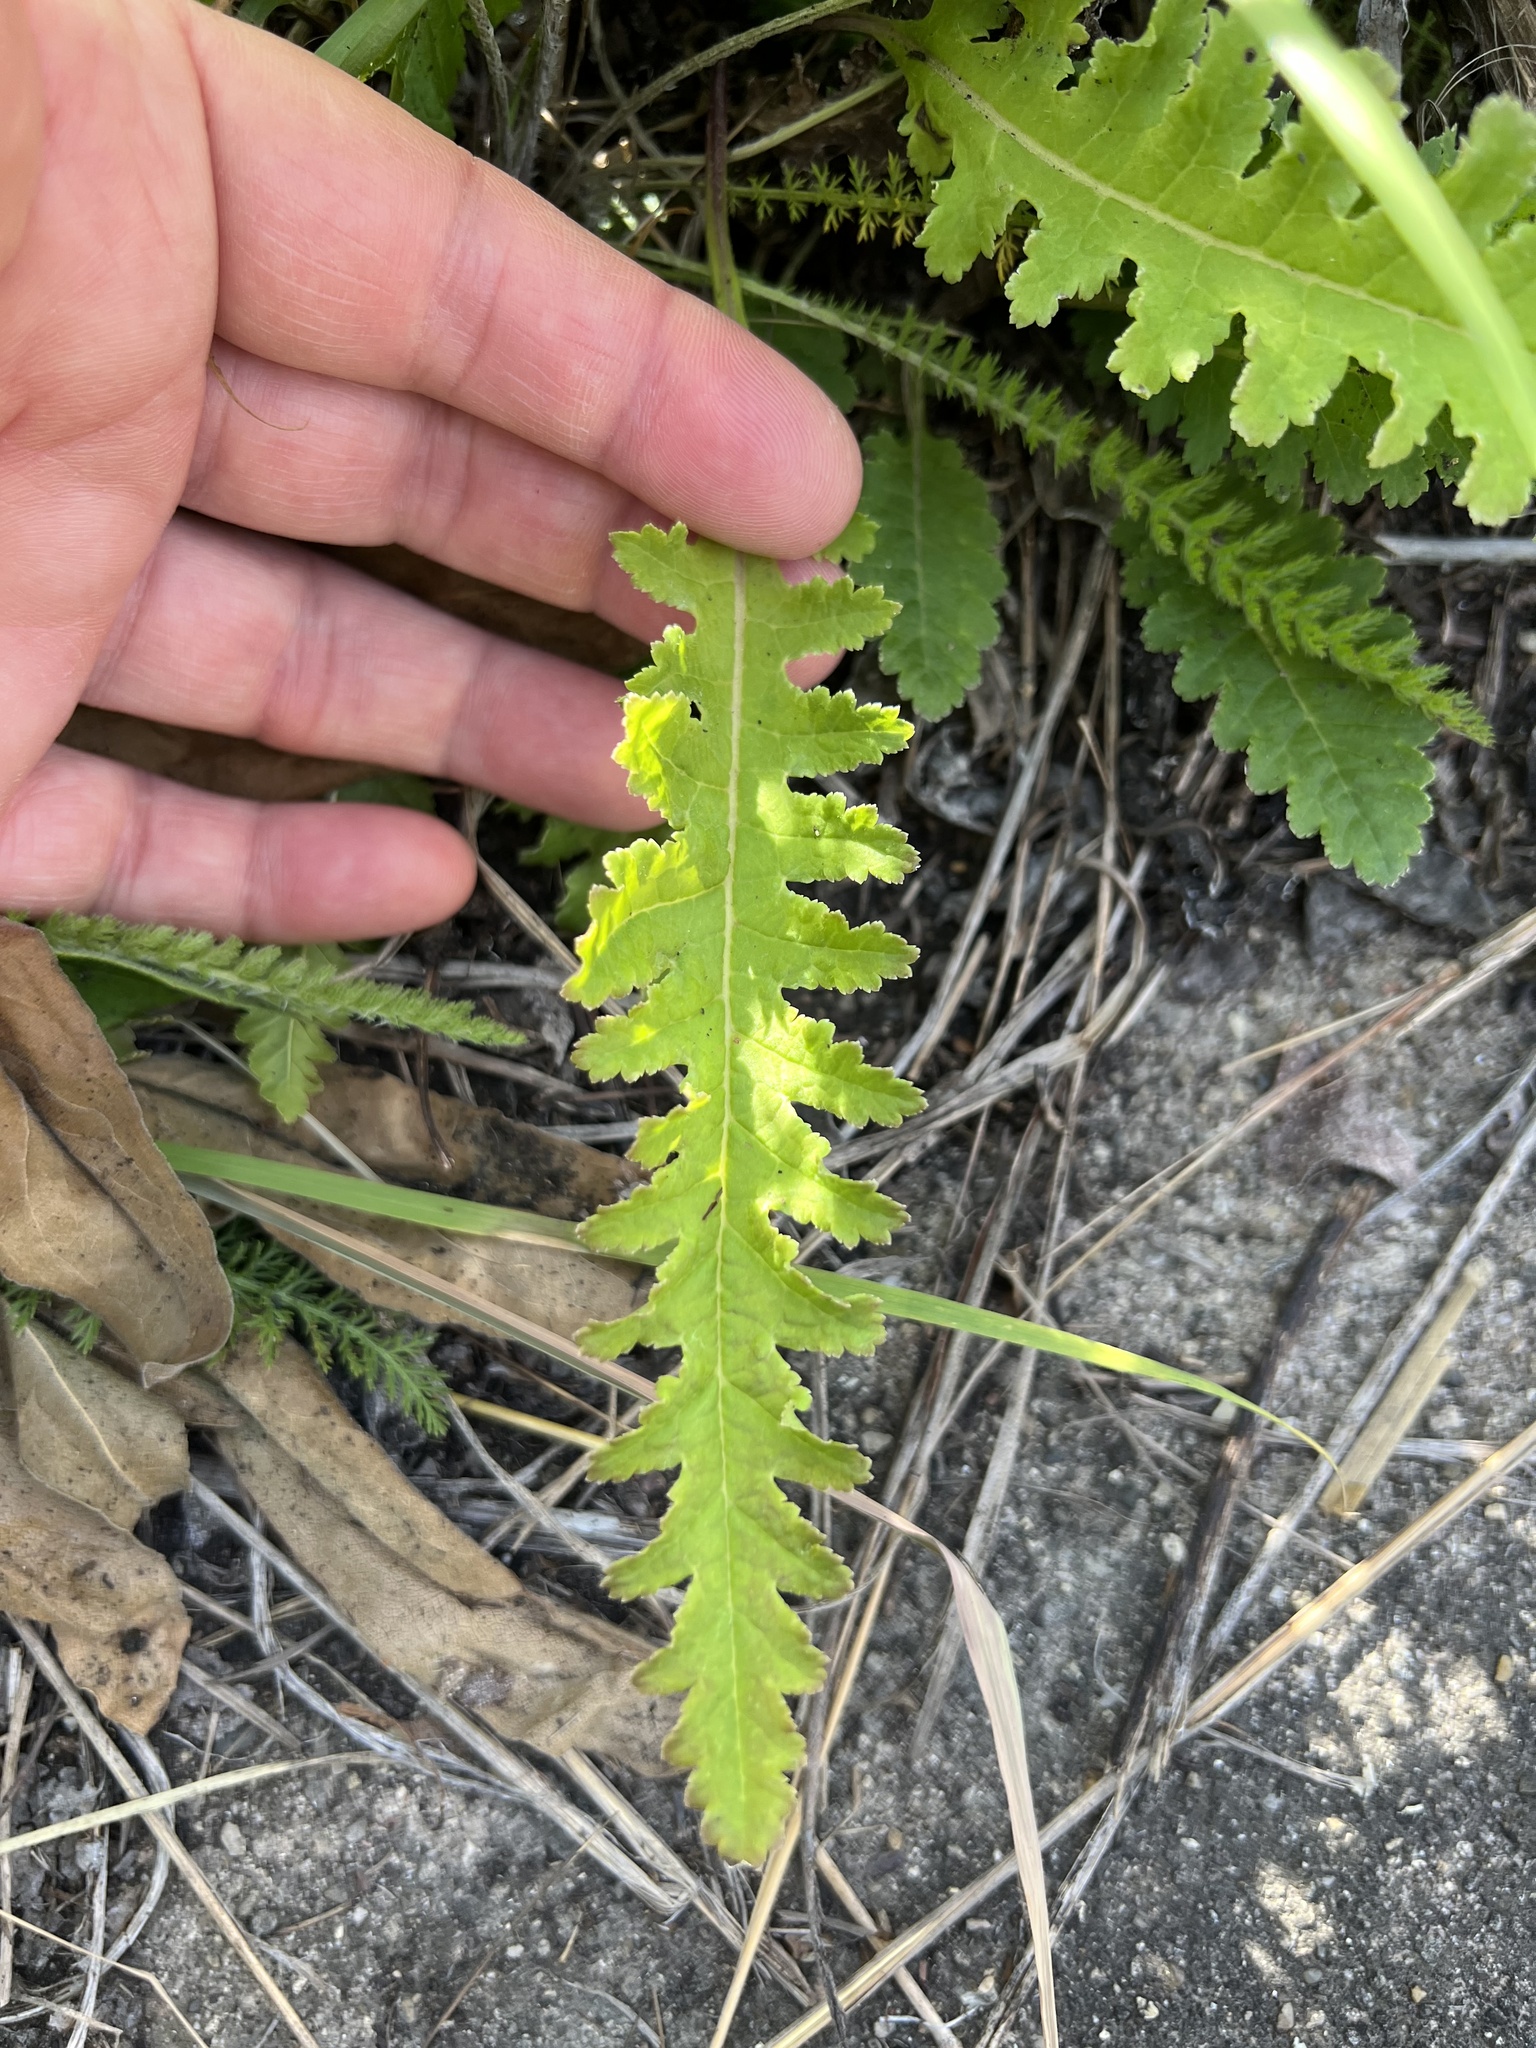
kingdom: Plantae
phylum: Tracheophyta
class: Magnoliopsida
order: Lamiales
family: Orobanchaceae
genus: Pedicularis
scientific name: Pedicularis canadensis
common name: Early lousewort
